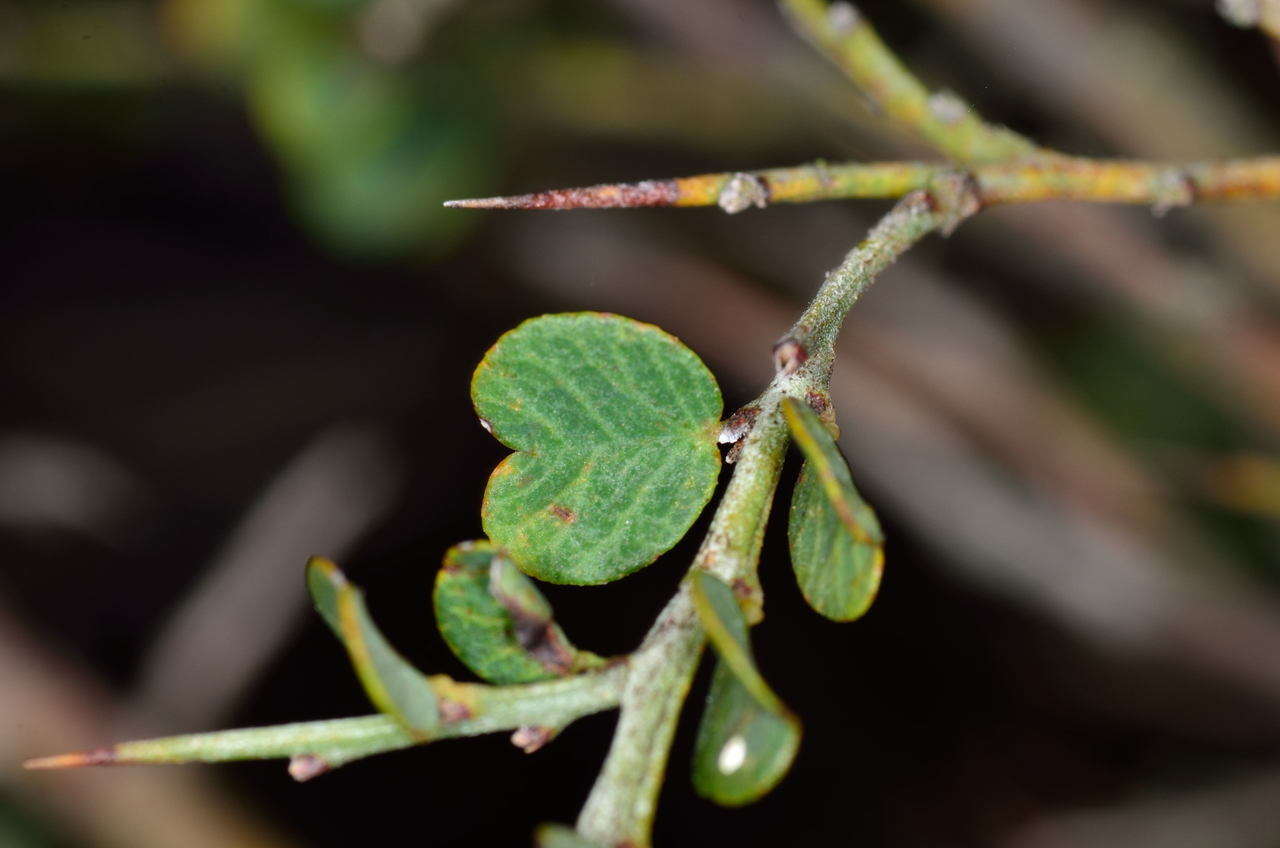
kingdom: Plantae
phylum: Tracheophyta
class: Magnoliopsida
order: Fabales
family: Fabaceae
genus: Bossiaea
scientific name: Bossiaea obcordata
